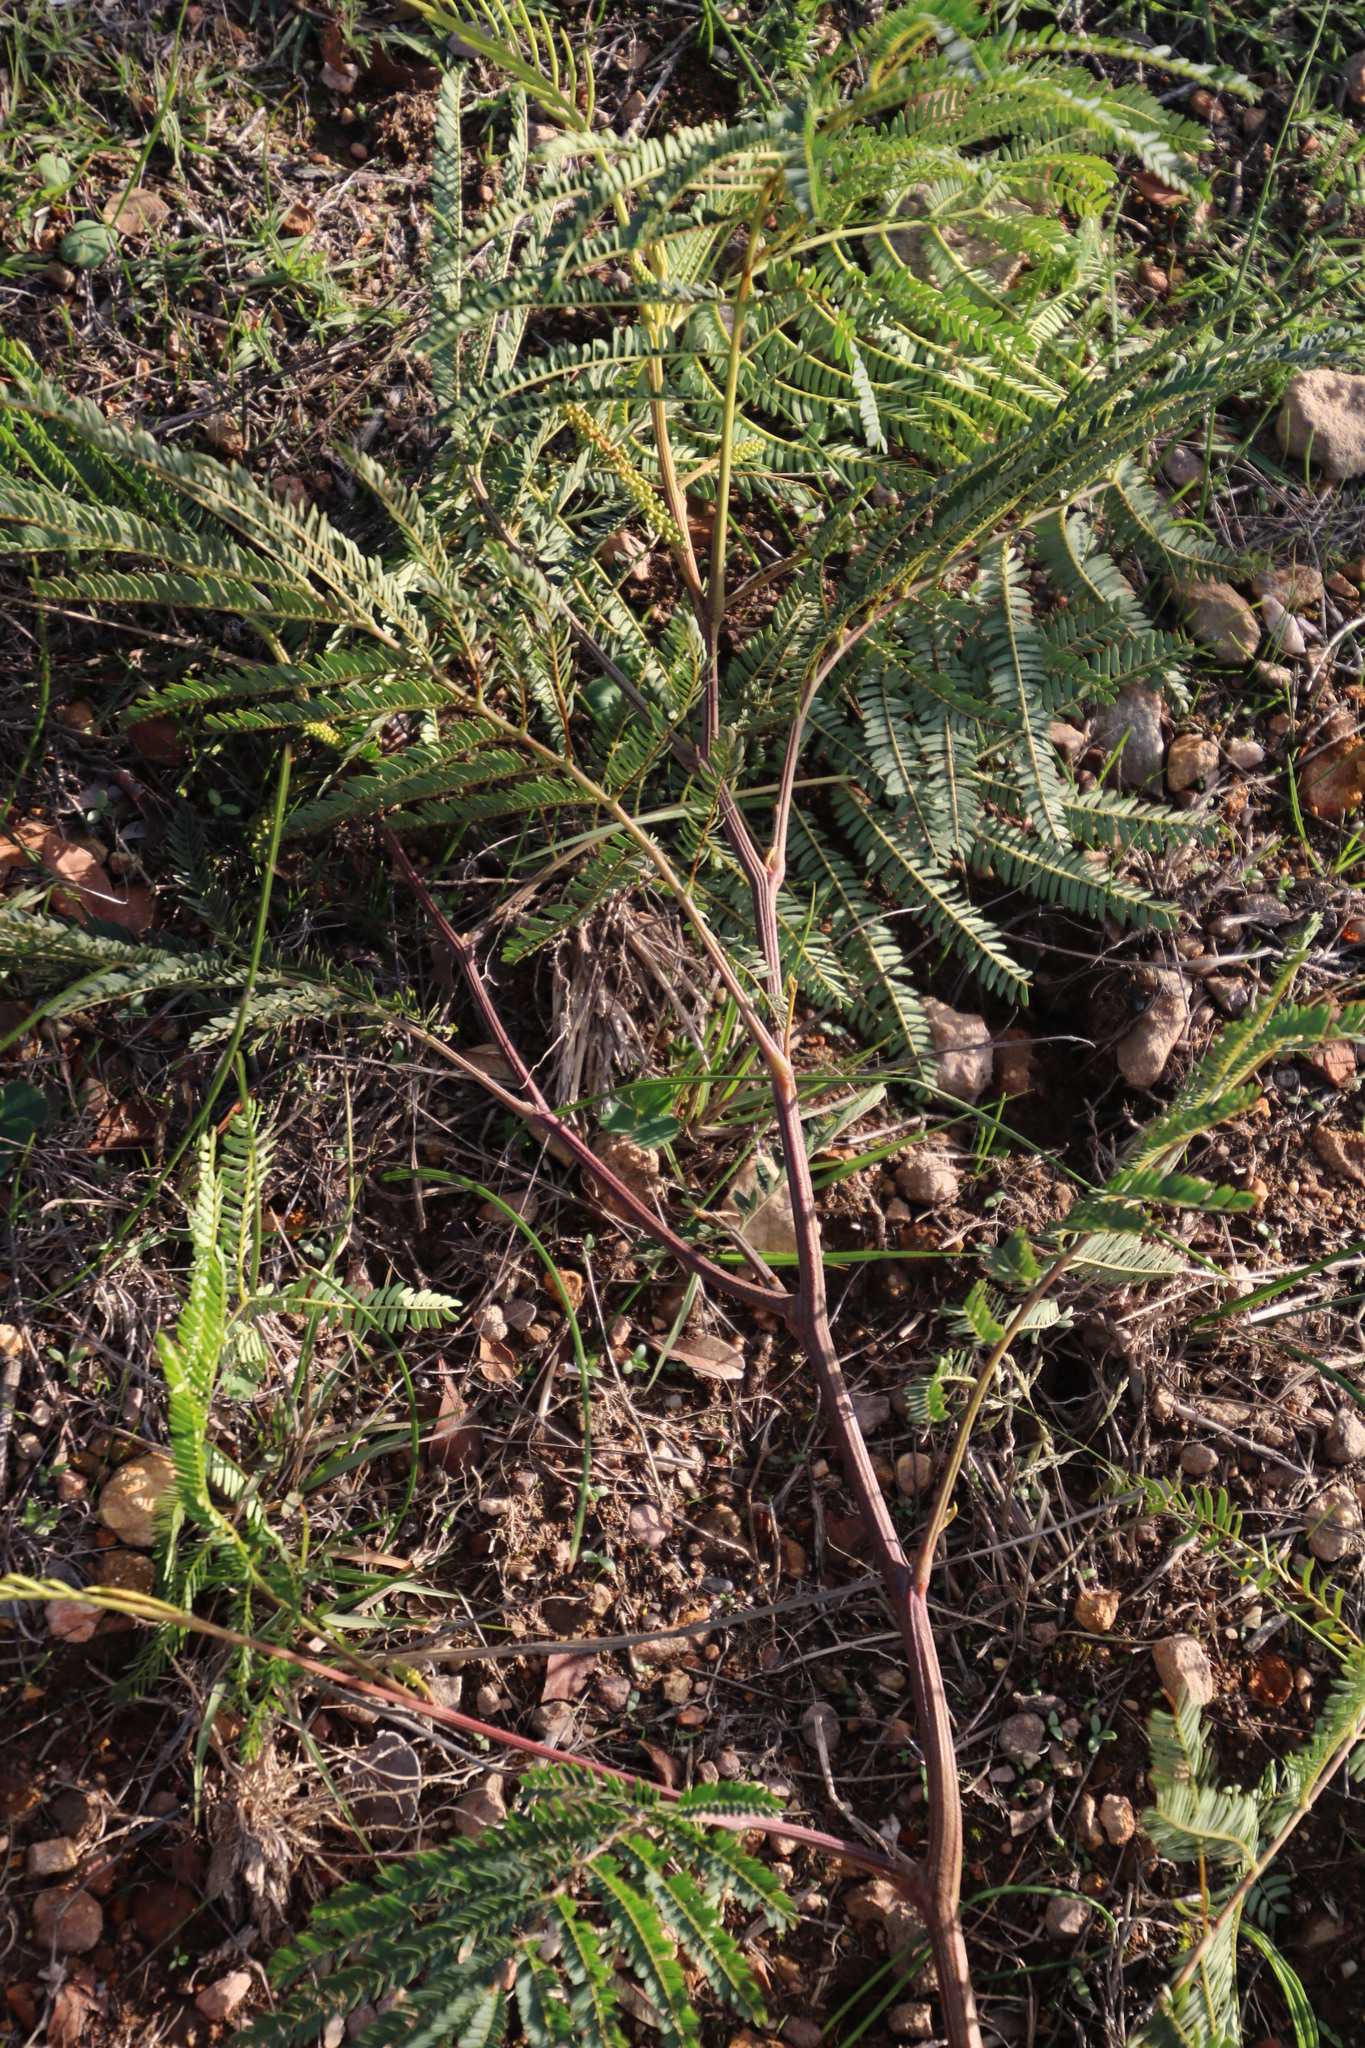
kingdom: Plantae
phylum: Tracheophyta
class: Magnoliopsida
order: Fabales
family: Fabaceae
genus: Paraserianthes
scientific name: Paraserianthes lophantha
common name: Plume albizia
